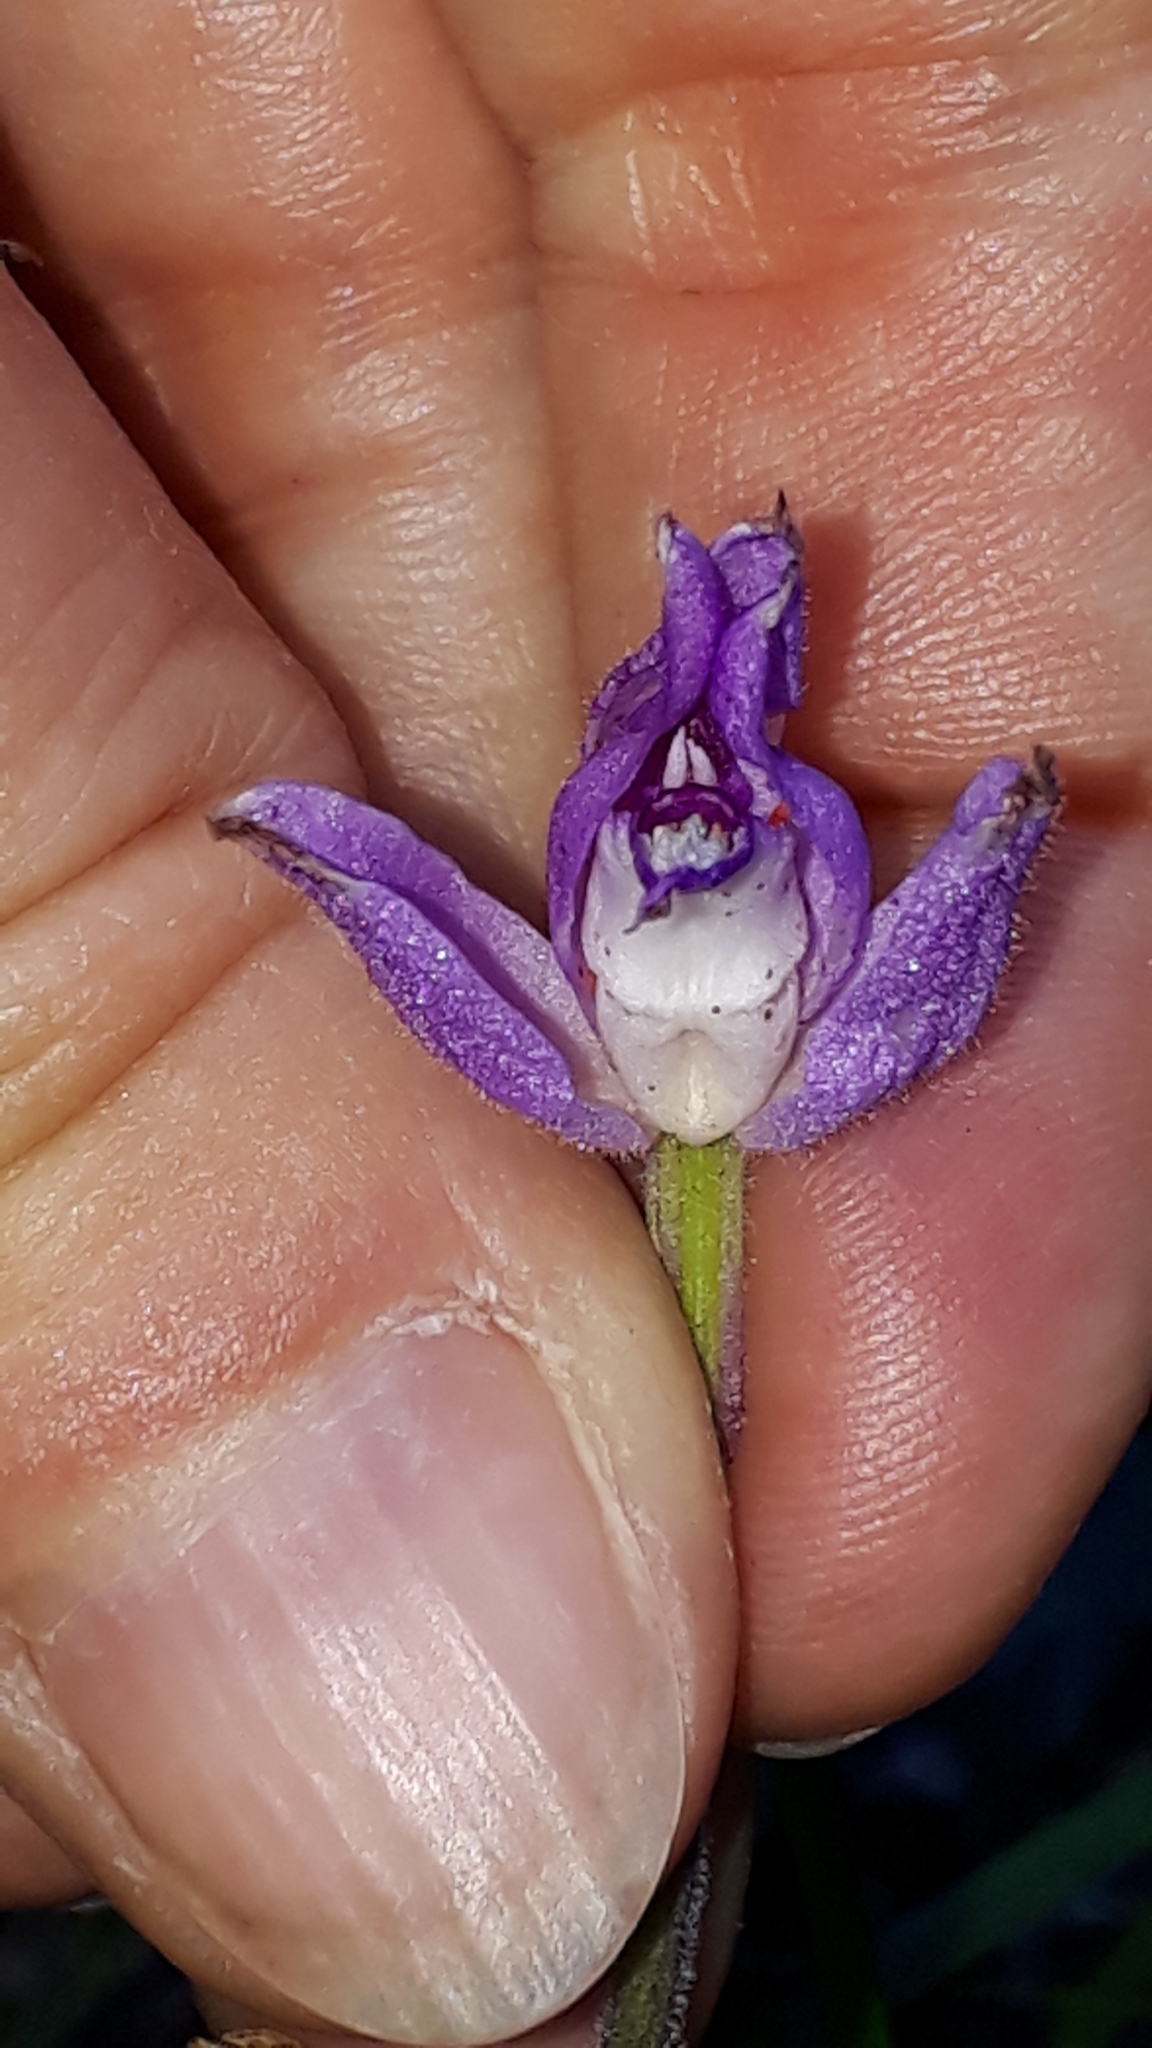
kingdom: Plantae
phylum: Tracheophyta
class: Liliopsida
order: Asparagales
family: Orchidaceae
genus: Cephalanthera
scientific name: Cephalanthera rubra
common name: Red helleborine
